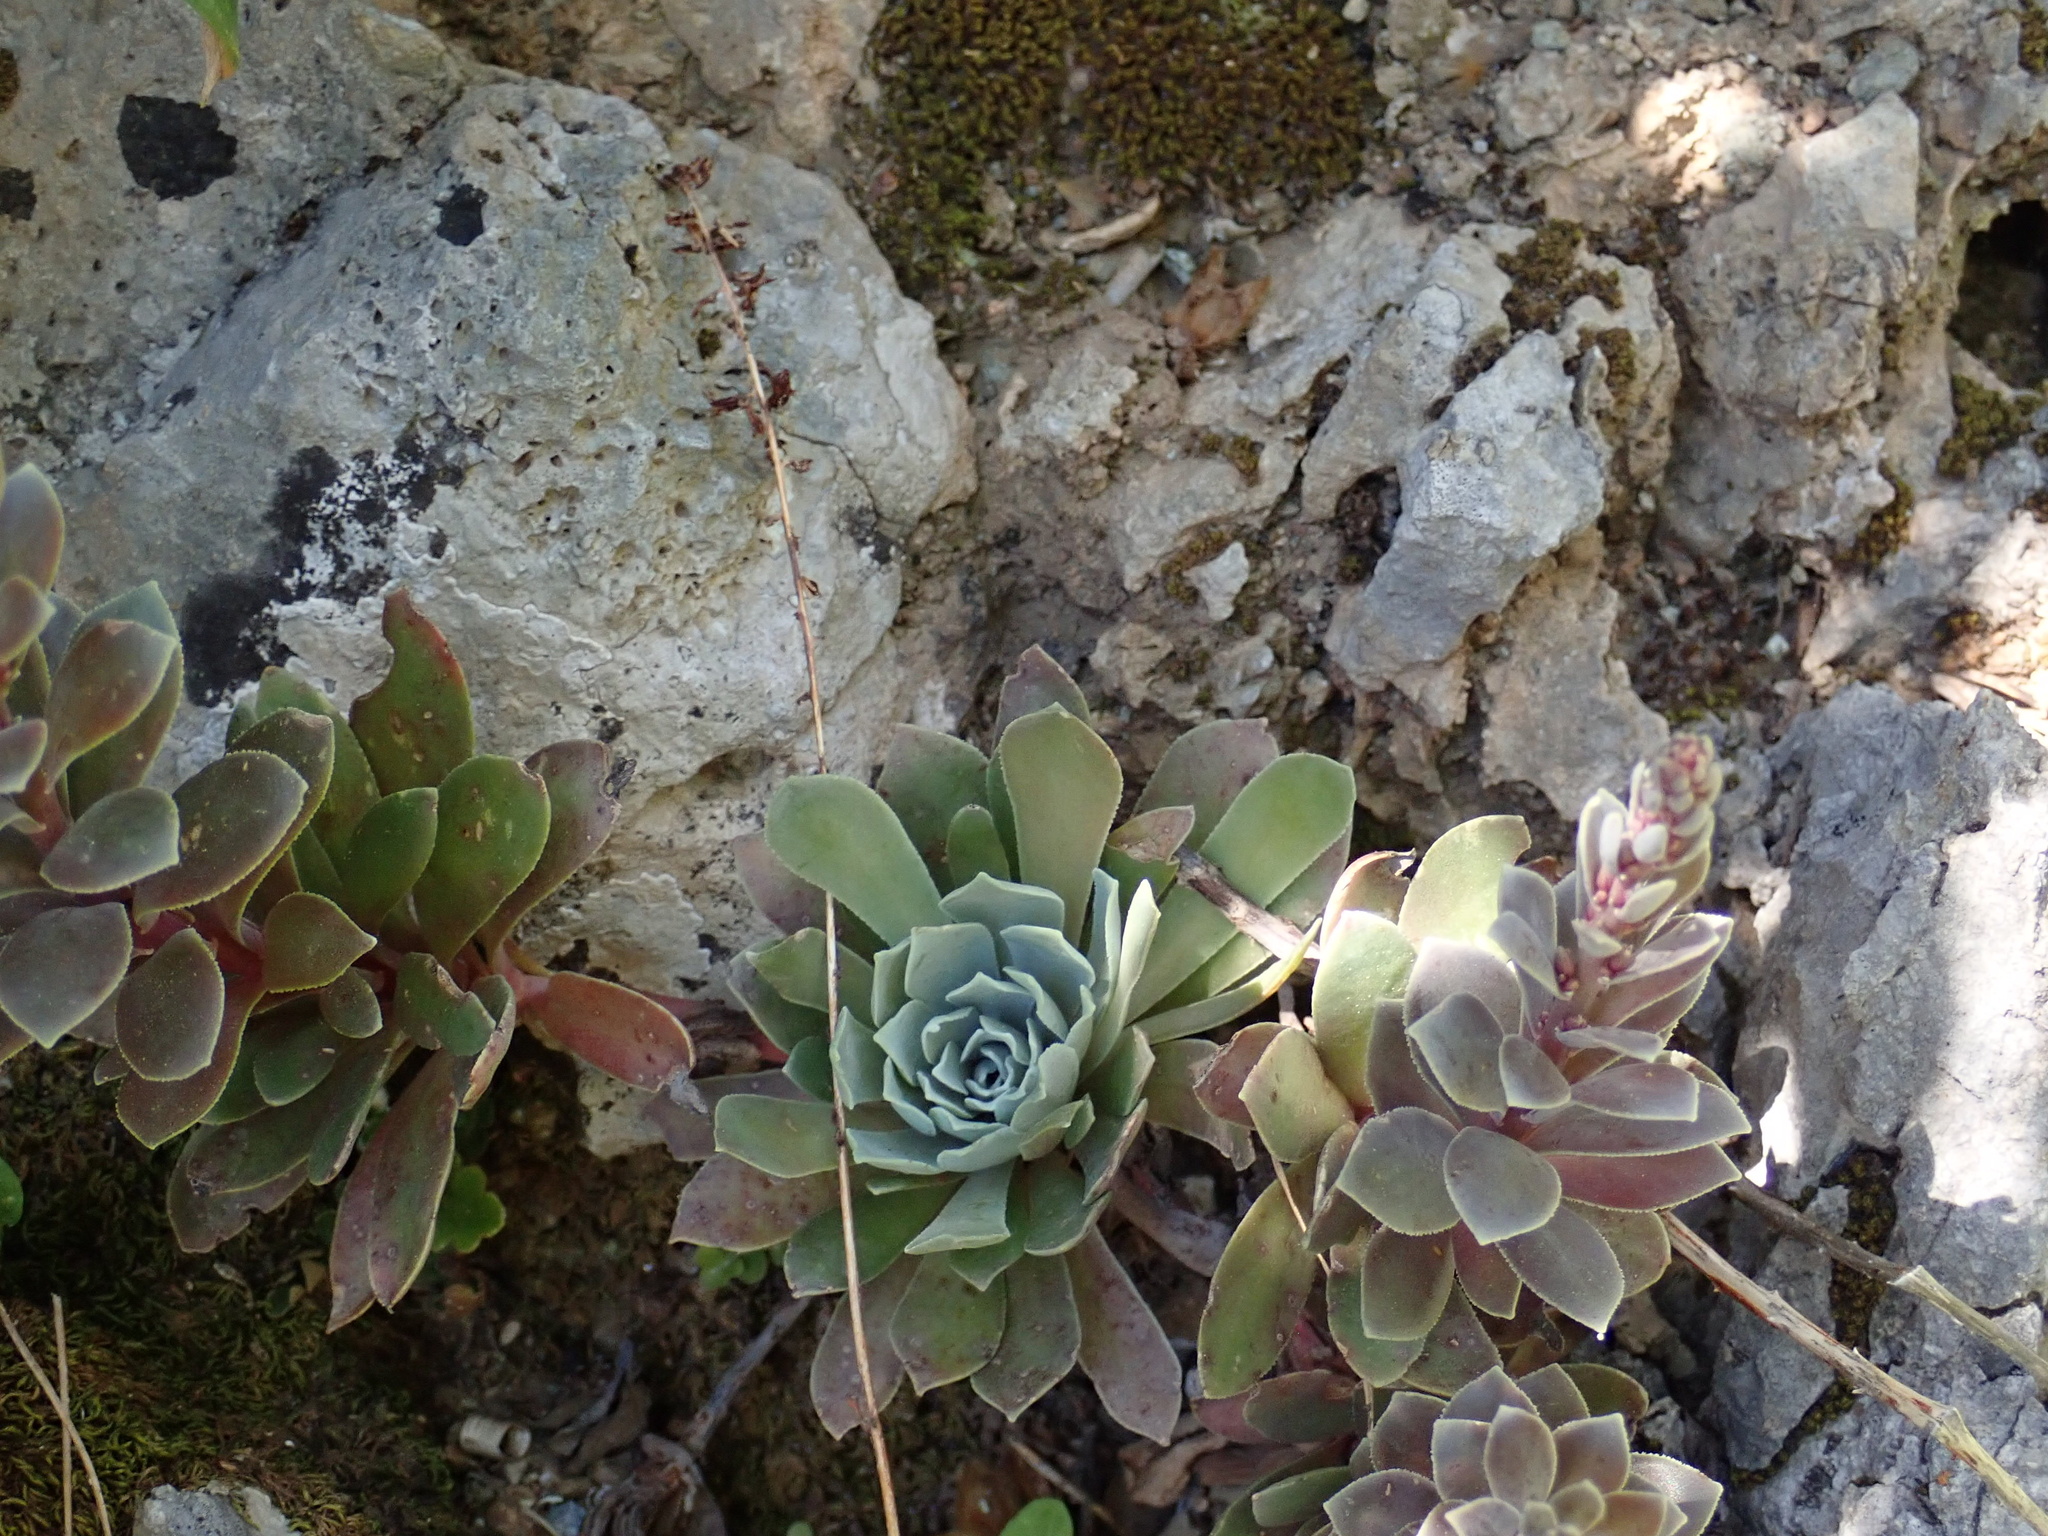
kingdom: Plantae
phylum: Tracheophyta
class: Magnoliopsida
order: Saxifragales
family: Crassulaceae
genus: Rosularia
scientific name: Rosularia serrata
